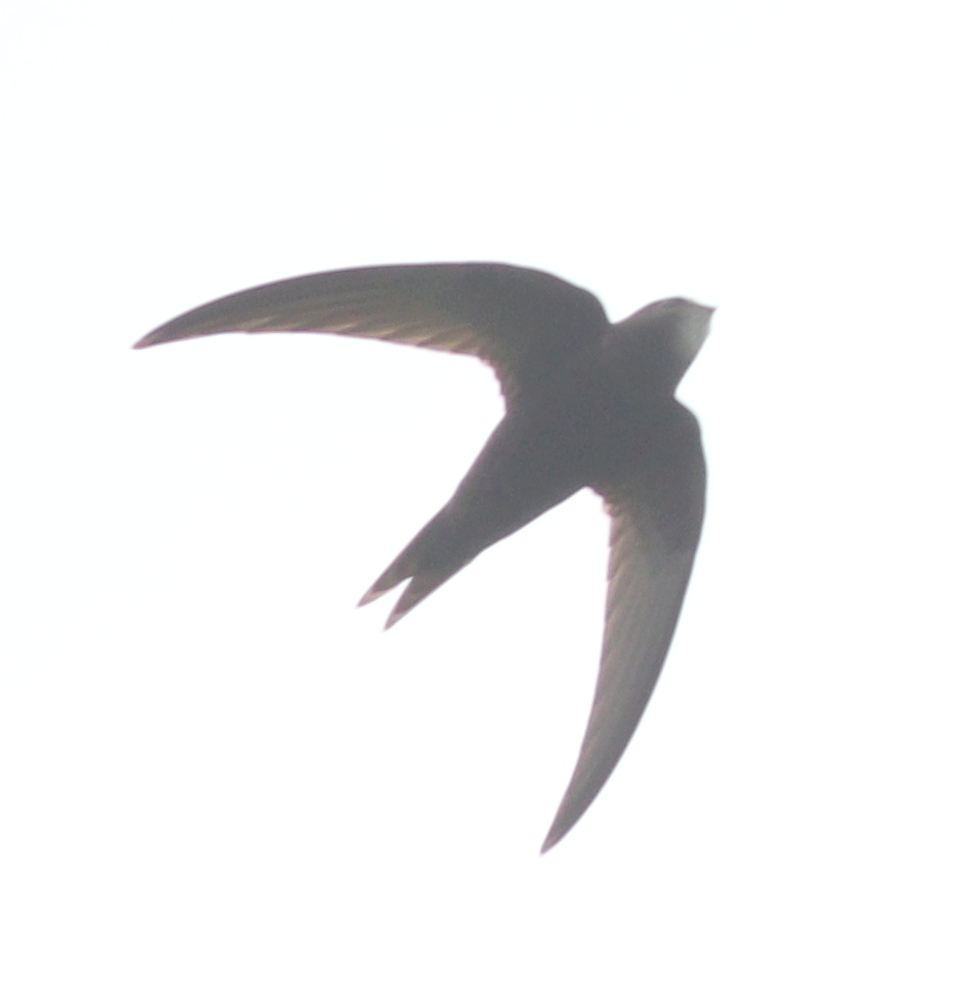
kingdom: Animalia
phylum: Chordata
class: Aves
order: Apodiformes
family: Apodidae
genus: Apus
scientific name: Apus apus
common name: Common swift
